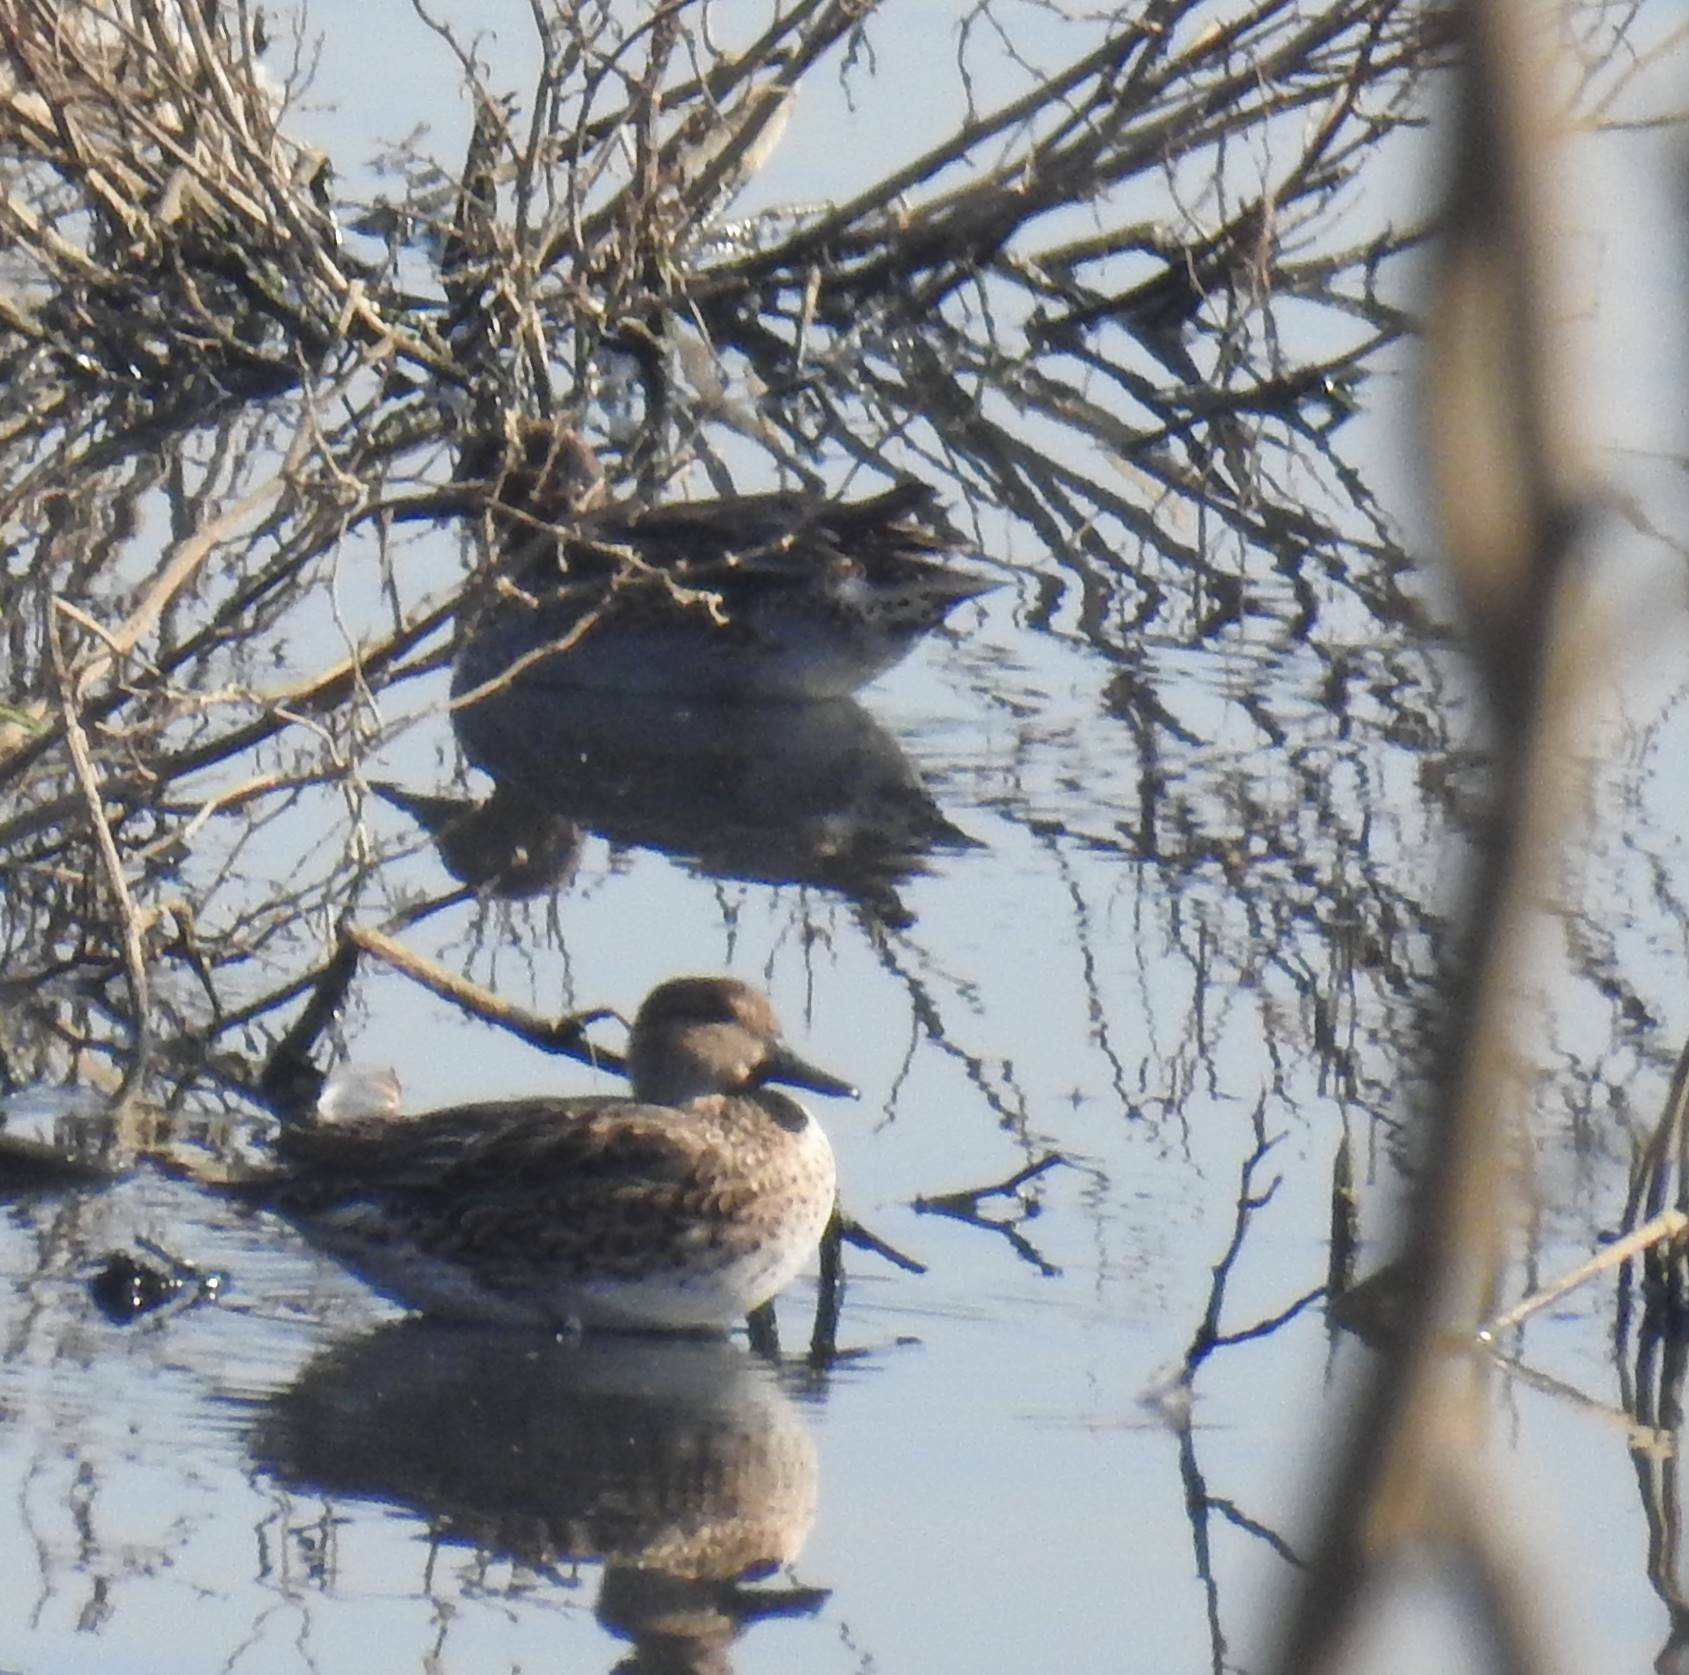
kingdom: Animalia
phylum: Chordata
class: Aves
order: Anseriformes
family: Anatidae
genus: Anas
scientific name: Anas crecca
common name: Eurasian teal
